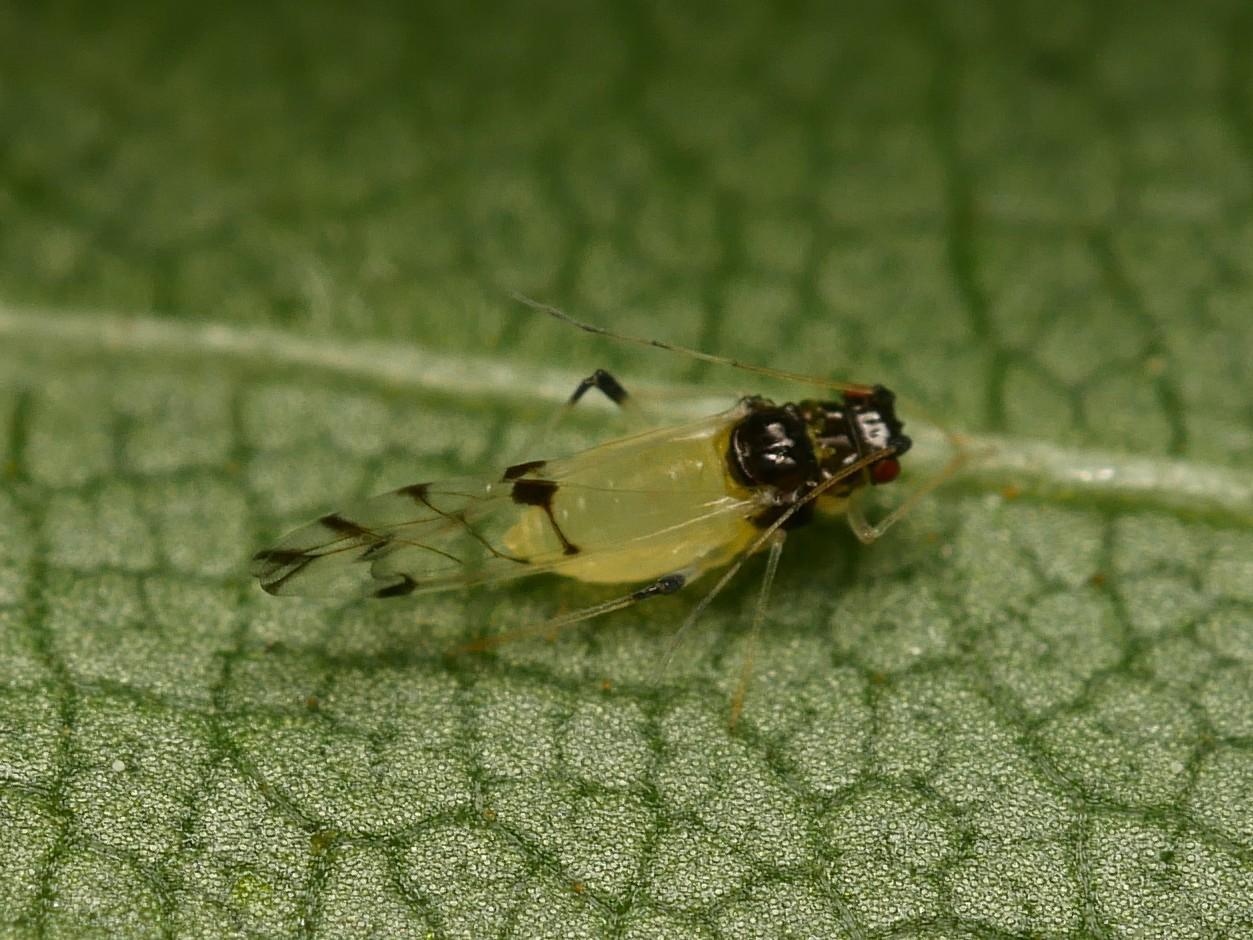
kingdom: Animalia
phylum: Arthropoda
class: Insecta
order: Hemiptera
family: Aphididae
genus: Tinocallis
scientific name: Tinocallis takachihoensis
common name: Aphid
